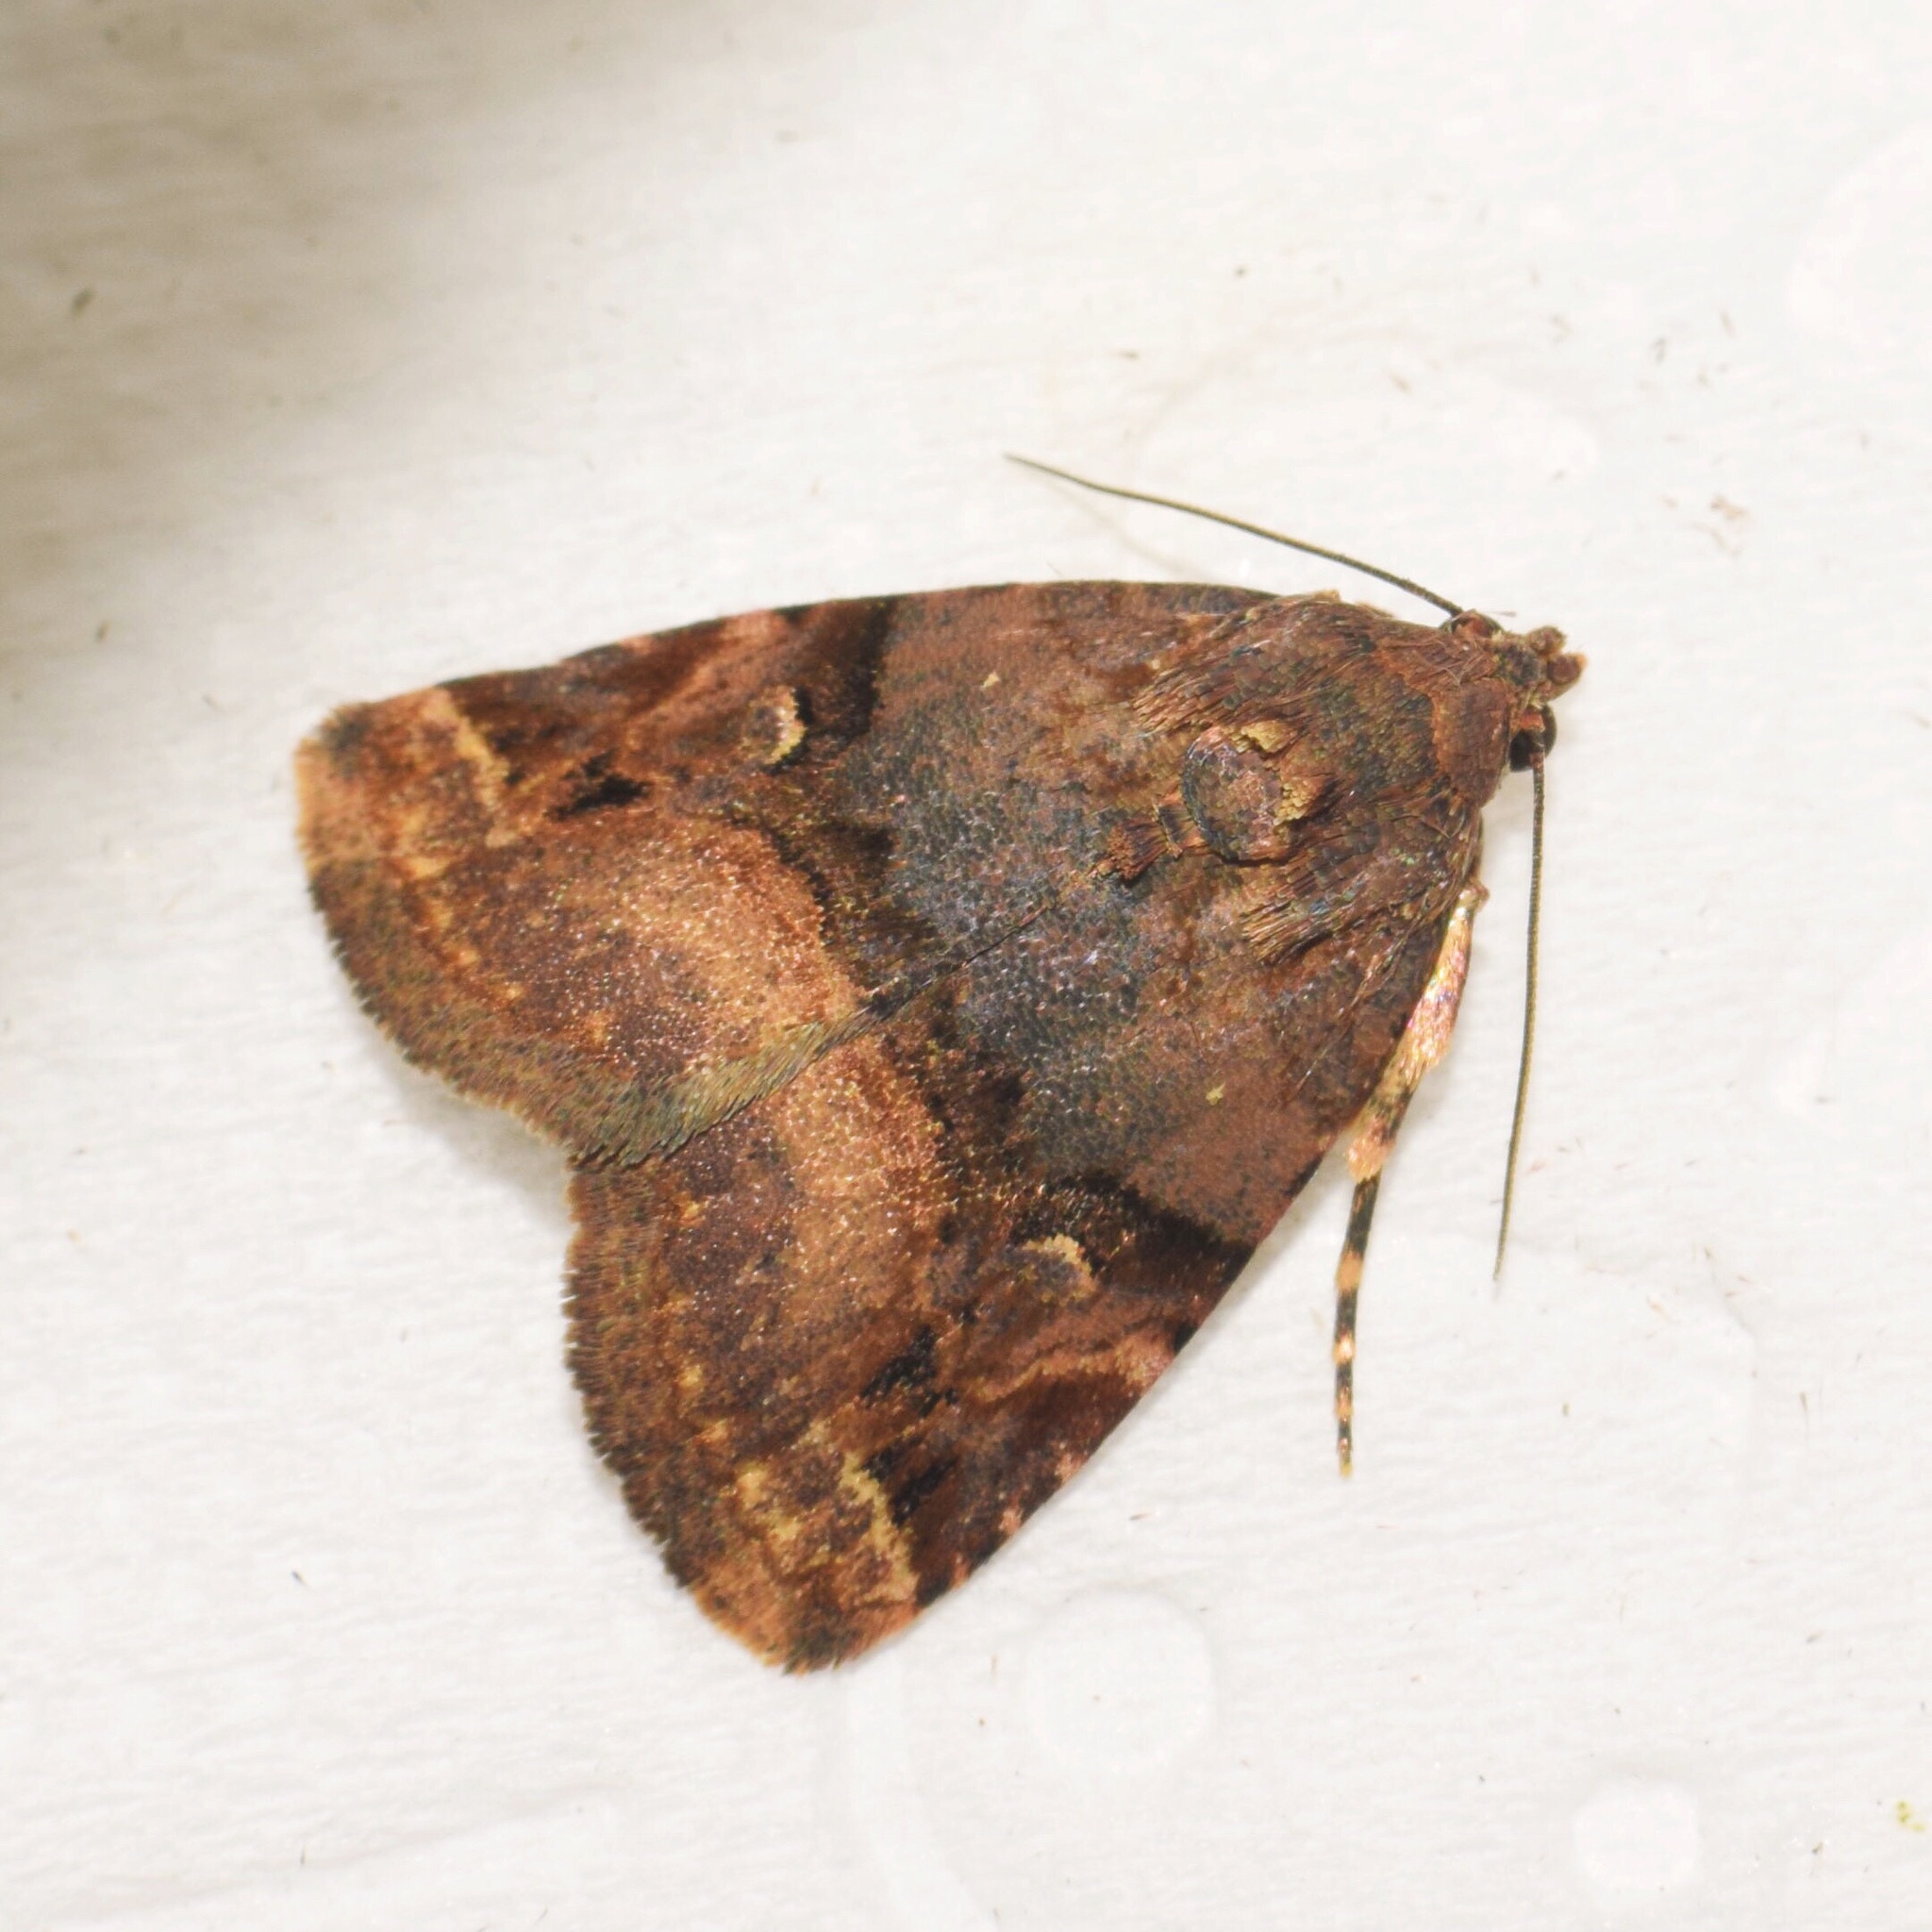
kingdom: Animalia
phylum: Arthropoda
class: Insecta
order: Lepidoptera
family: Noctuidae
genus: Ozarba
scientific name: Ozarba plagifera
